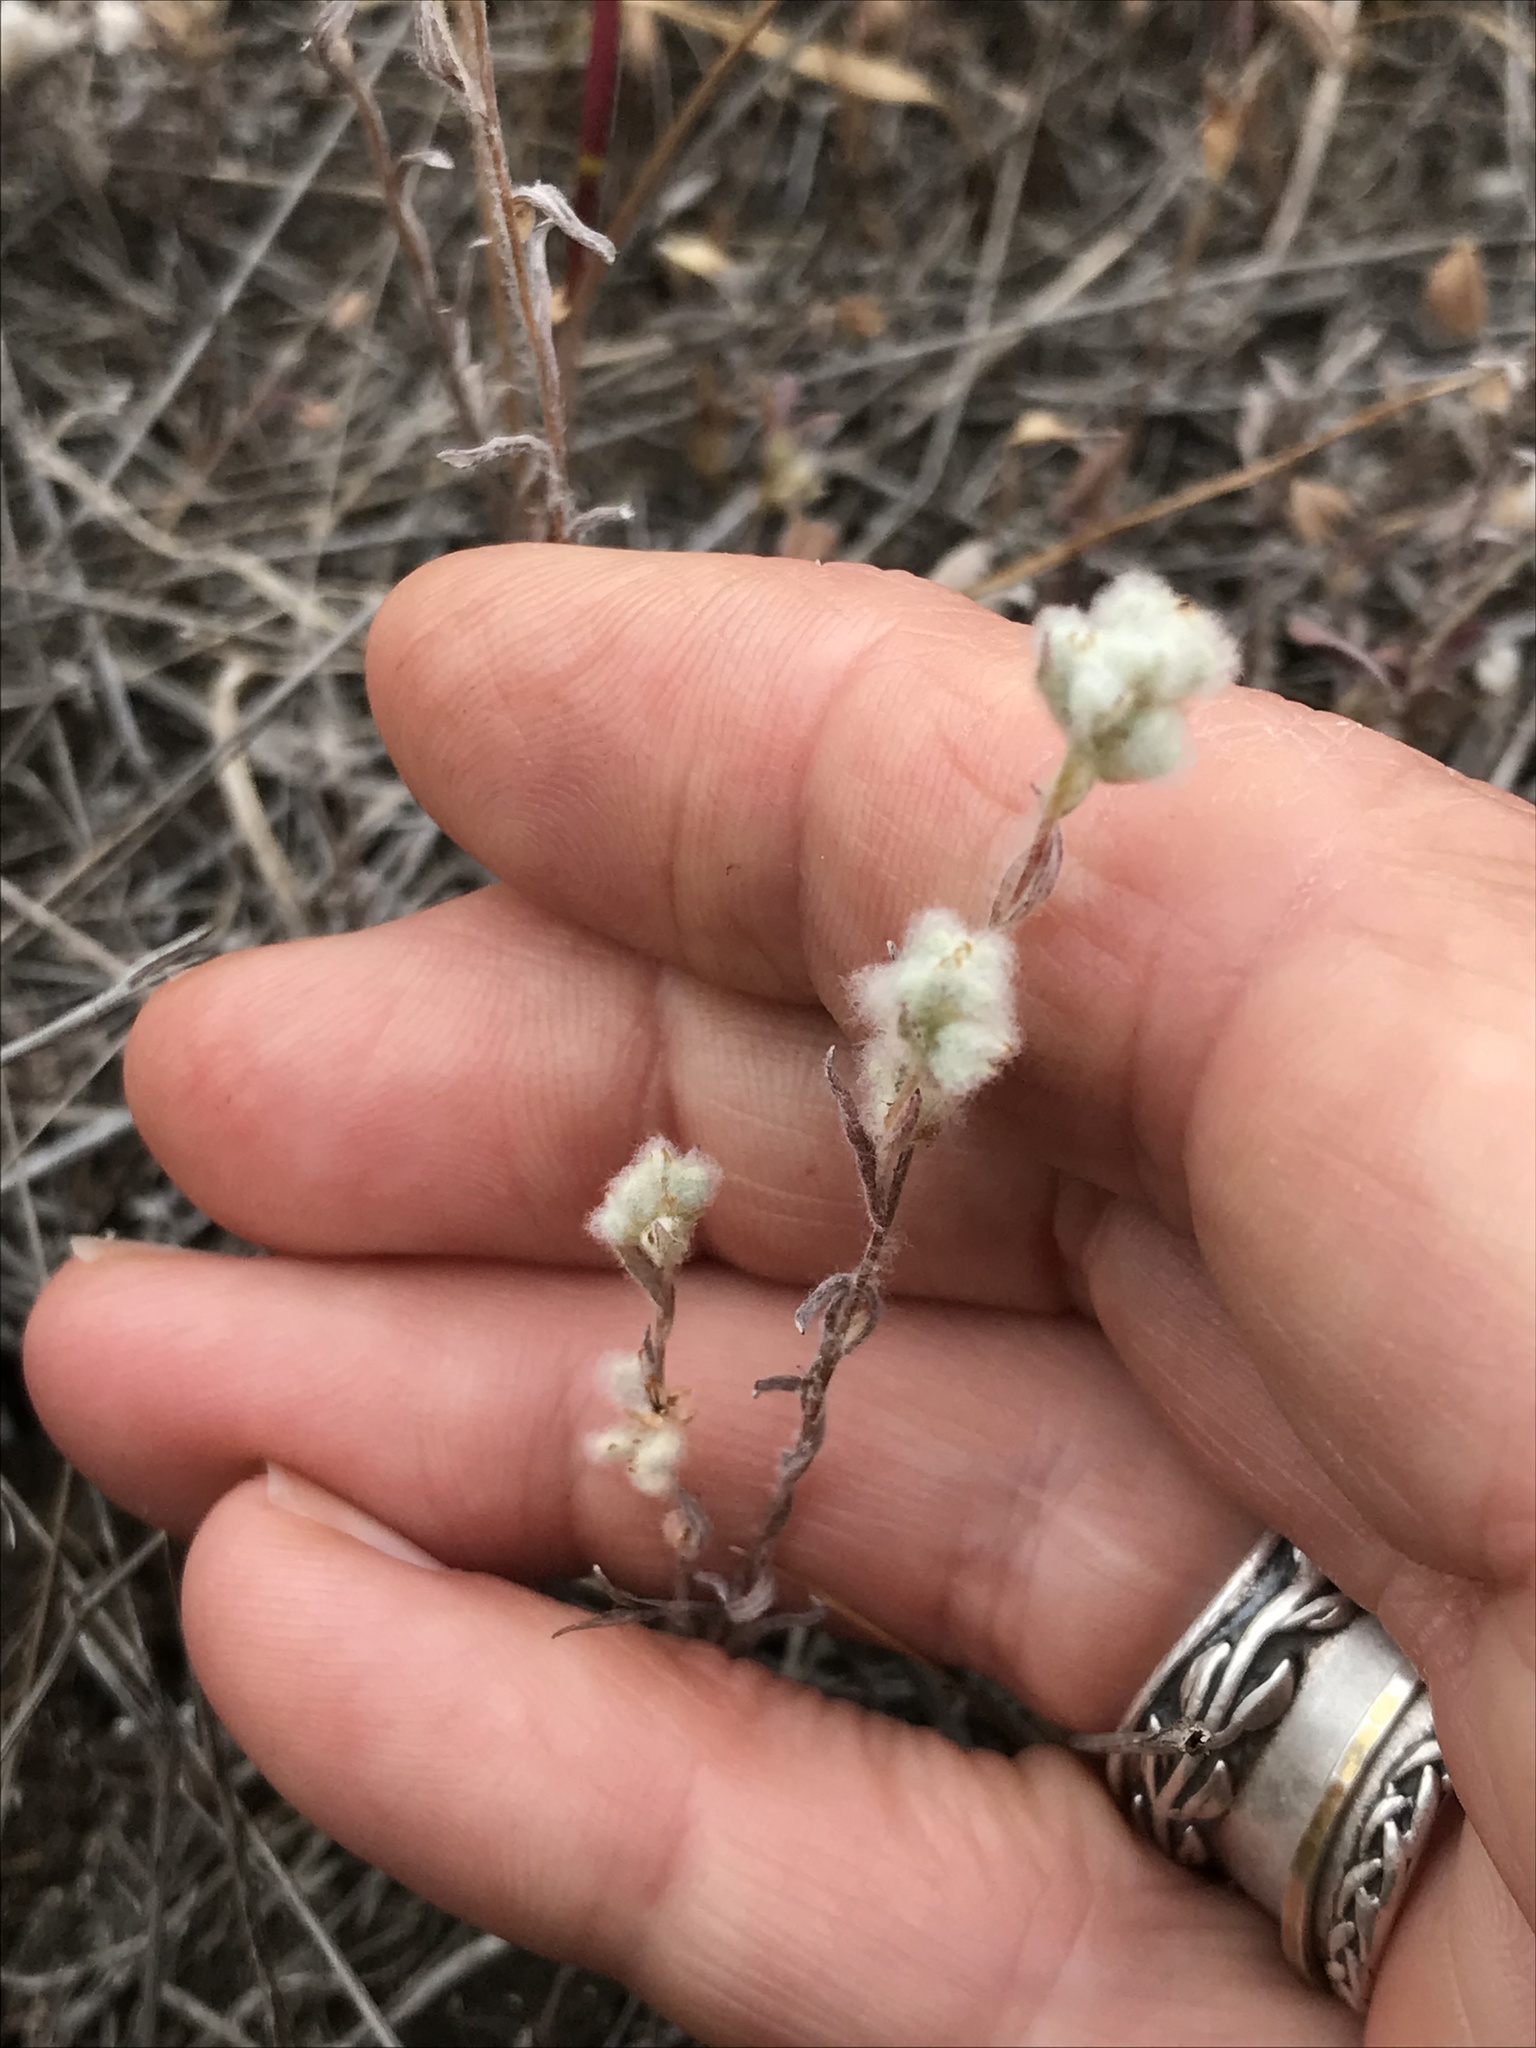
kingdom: Plantae
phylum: Tracheophyta
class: Magnoliopsida
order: Asterales
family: Asteraceae
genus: Bombycilaena
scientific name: Bombycilaena californica
